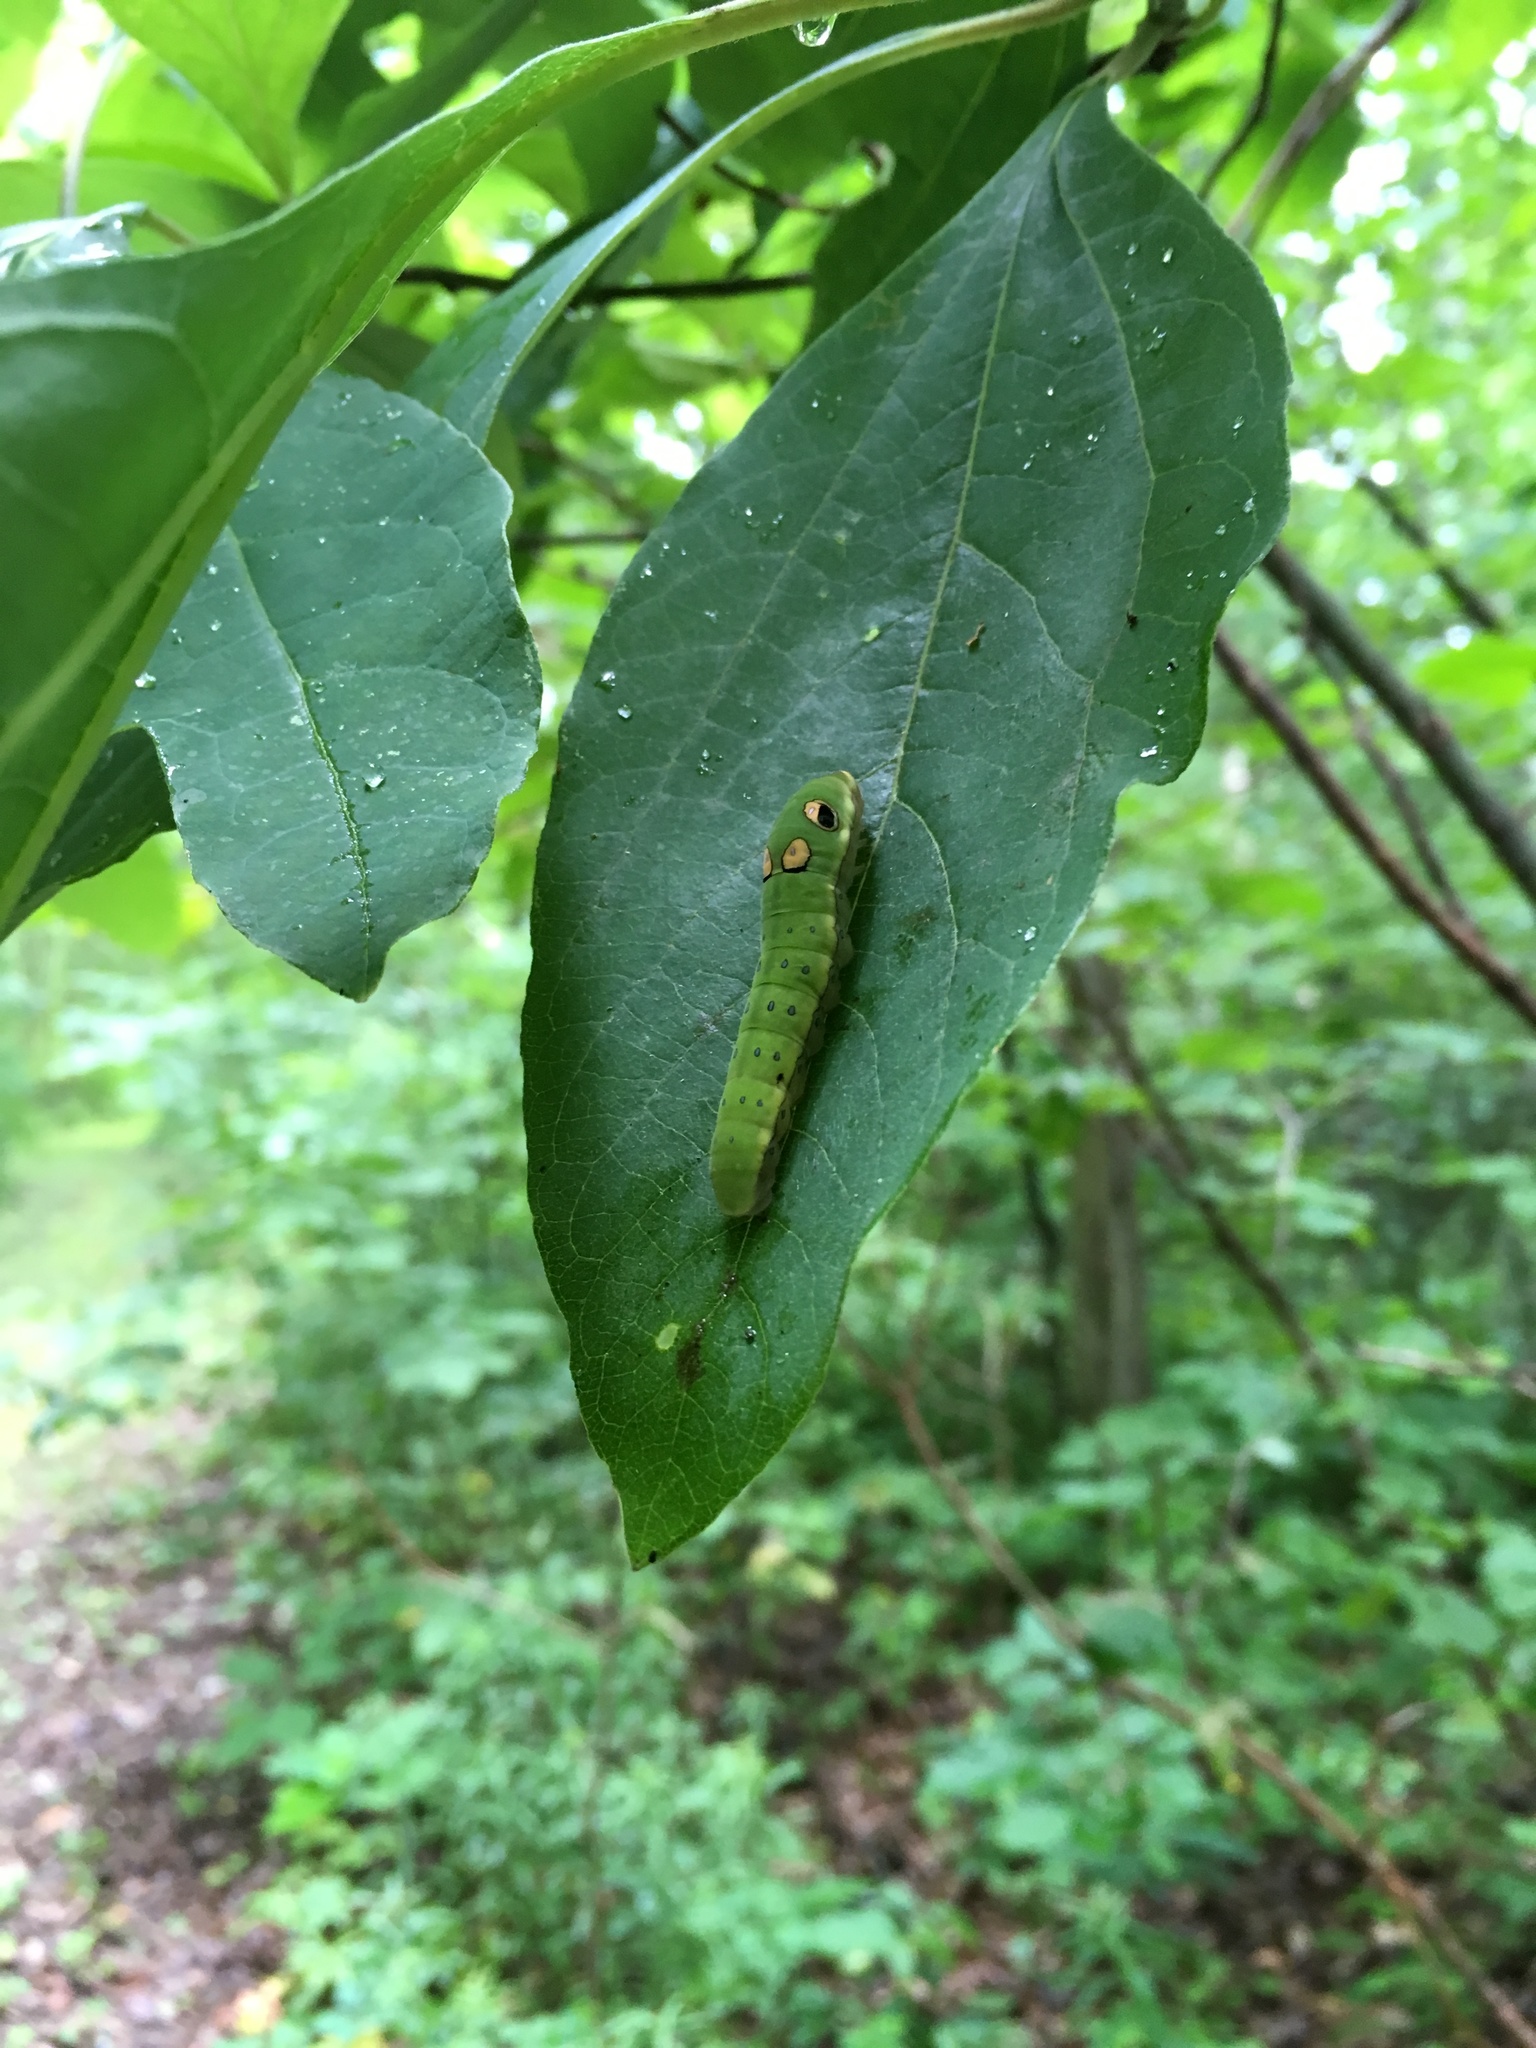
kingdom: Animalia
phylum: Arthropoda
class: Insecta
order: Lepidoptera
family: Papilionidae
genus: Papilio
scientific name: Papilio troilus
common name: Spicebush swallowtail
